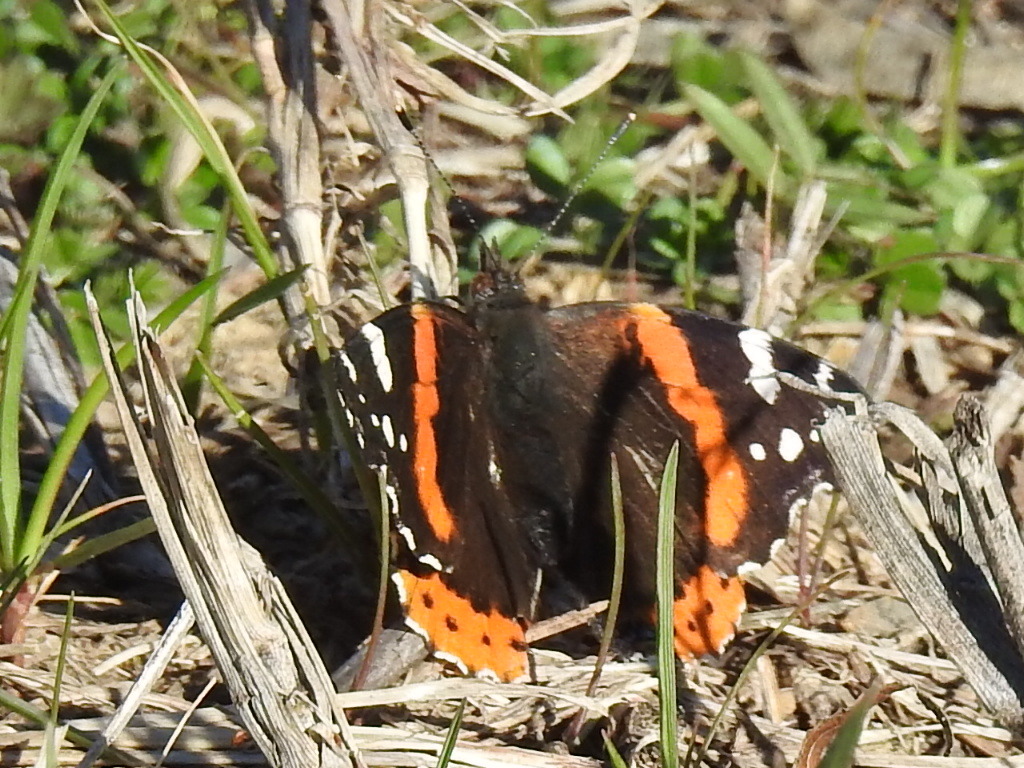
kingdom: Animalia
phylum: Arthropoda
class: Insecta
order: Lepidoptera
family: Nymphalidae
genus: Vanessa
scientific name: Vanessa atalanta
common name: Red admiral
